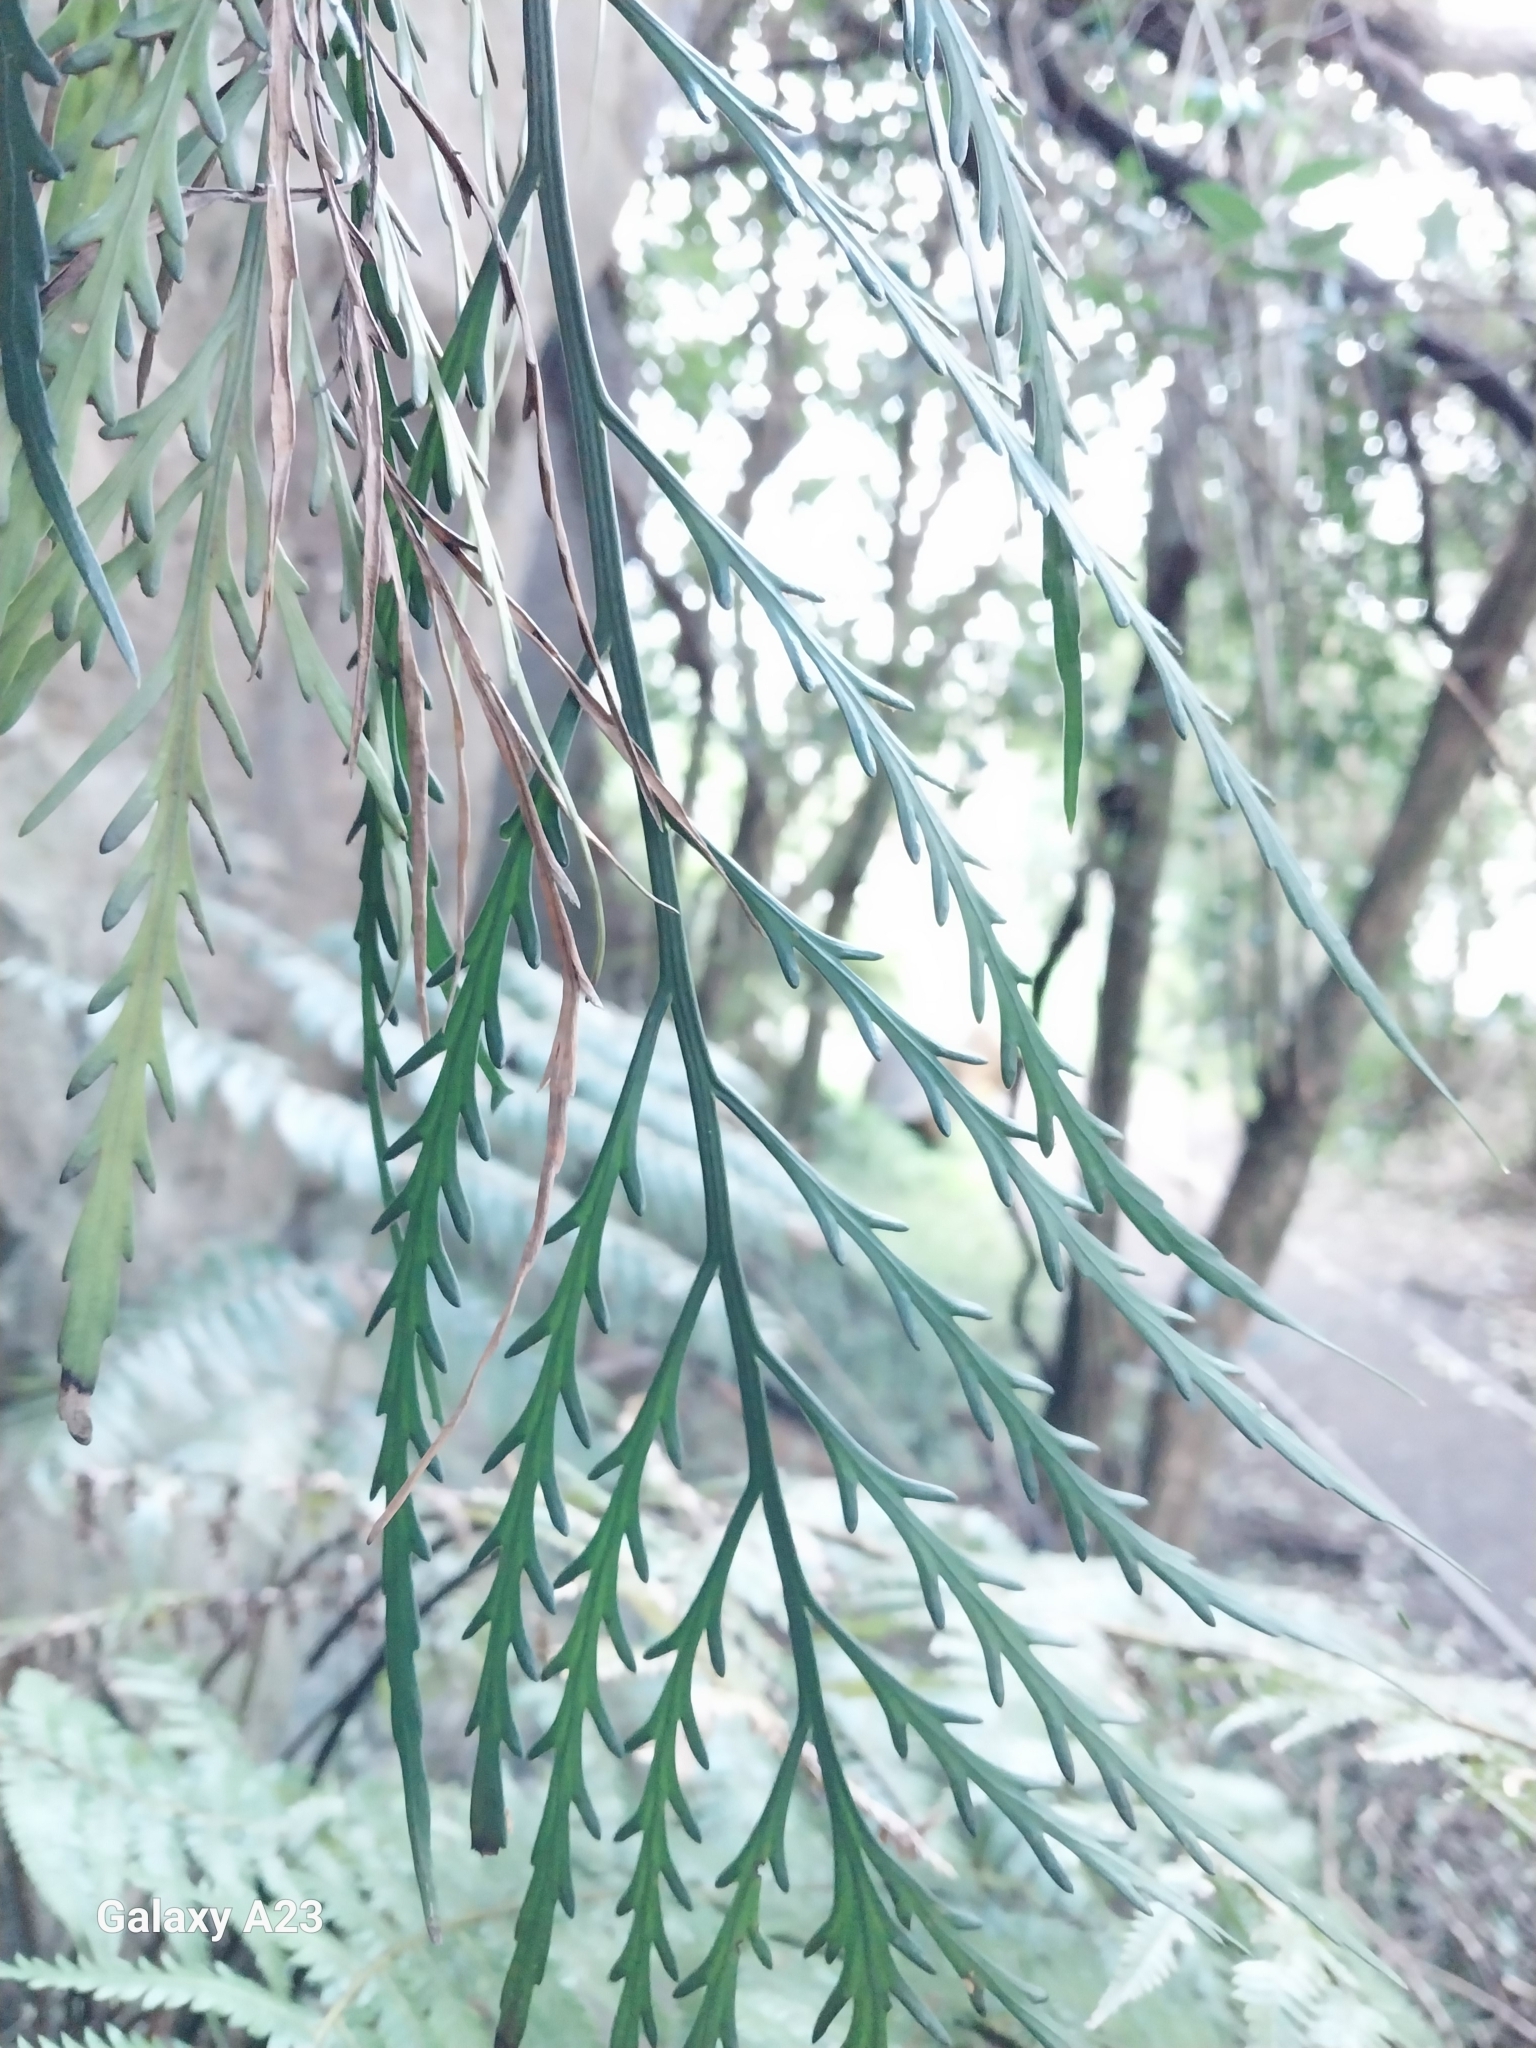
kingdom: Plantae
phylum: Tracheophyta
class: Polypodiopsida
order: Polypodiales
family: Aspleniaceae
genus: Asplenium
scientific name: Asplenium flaccidum
